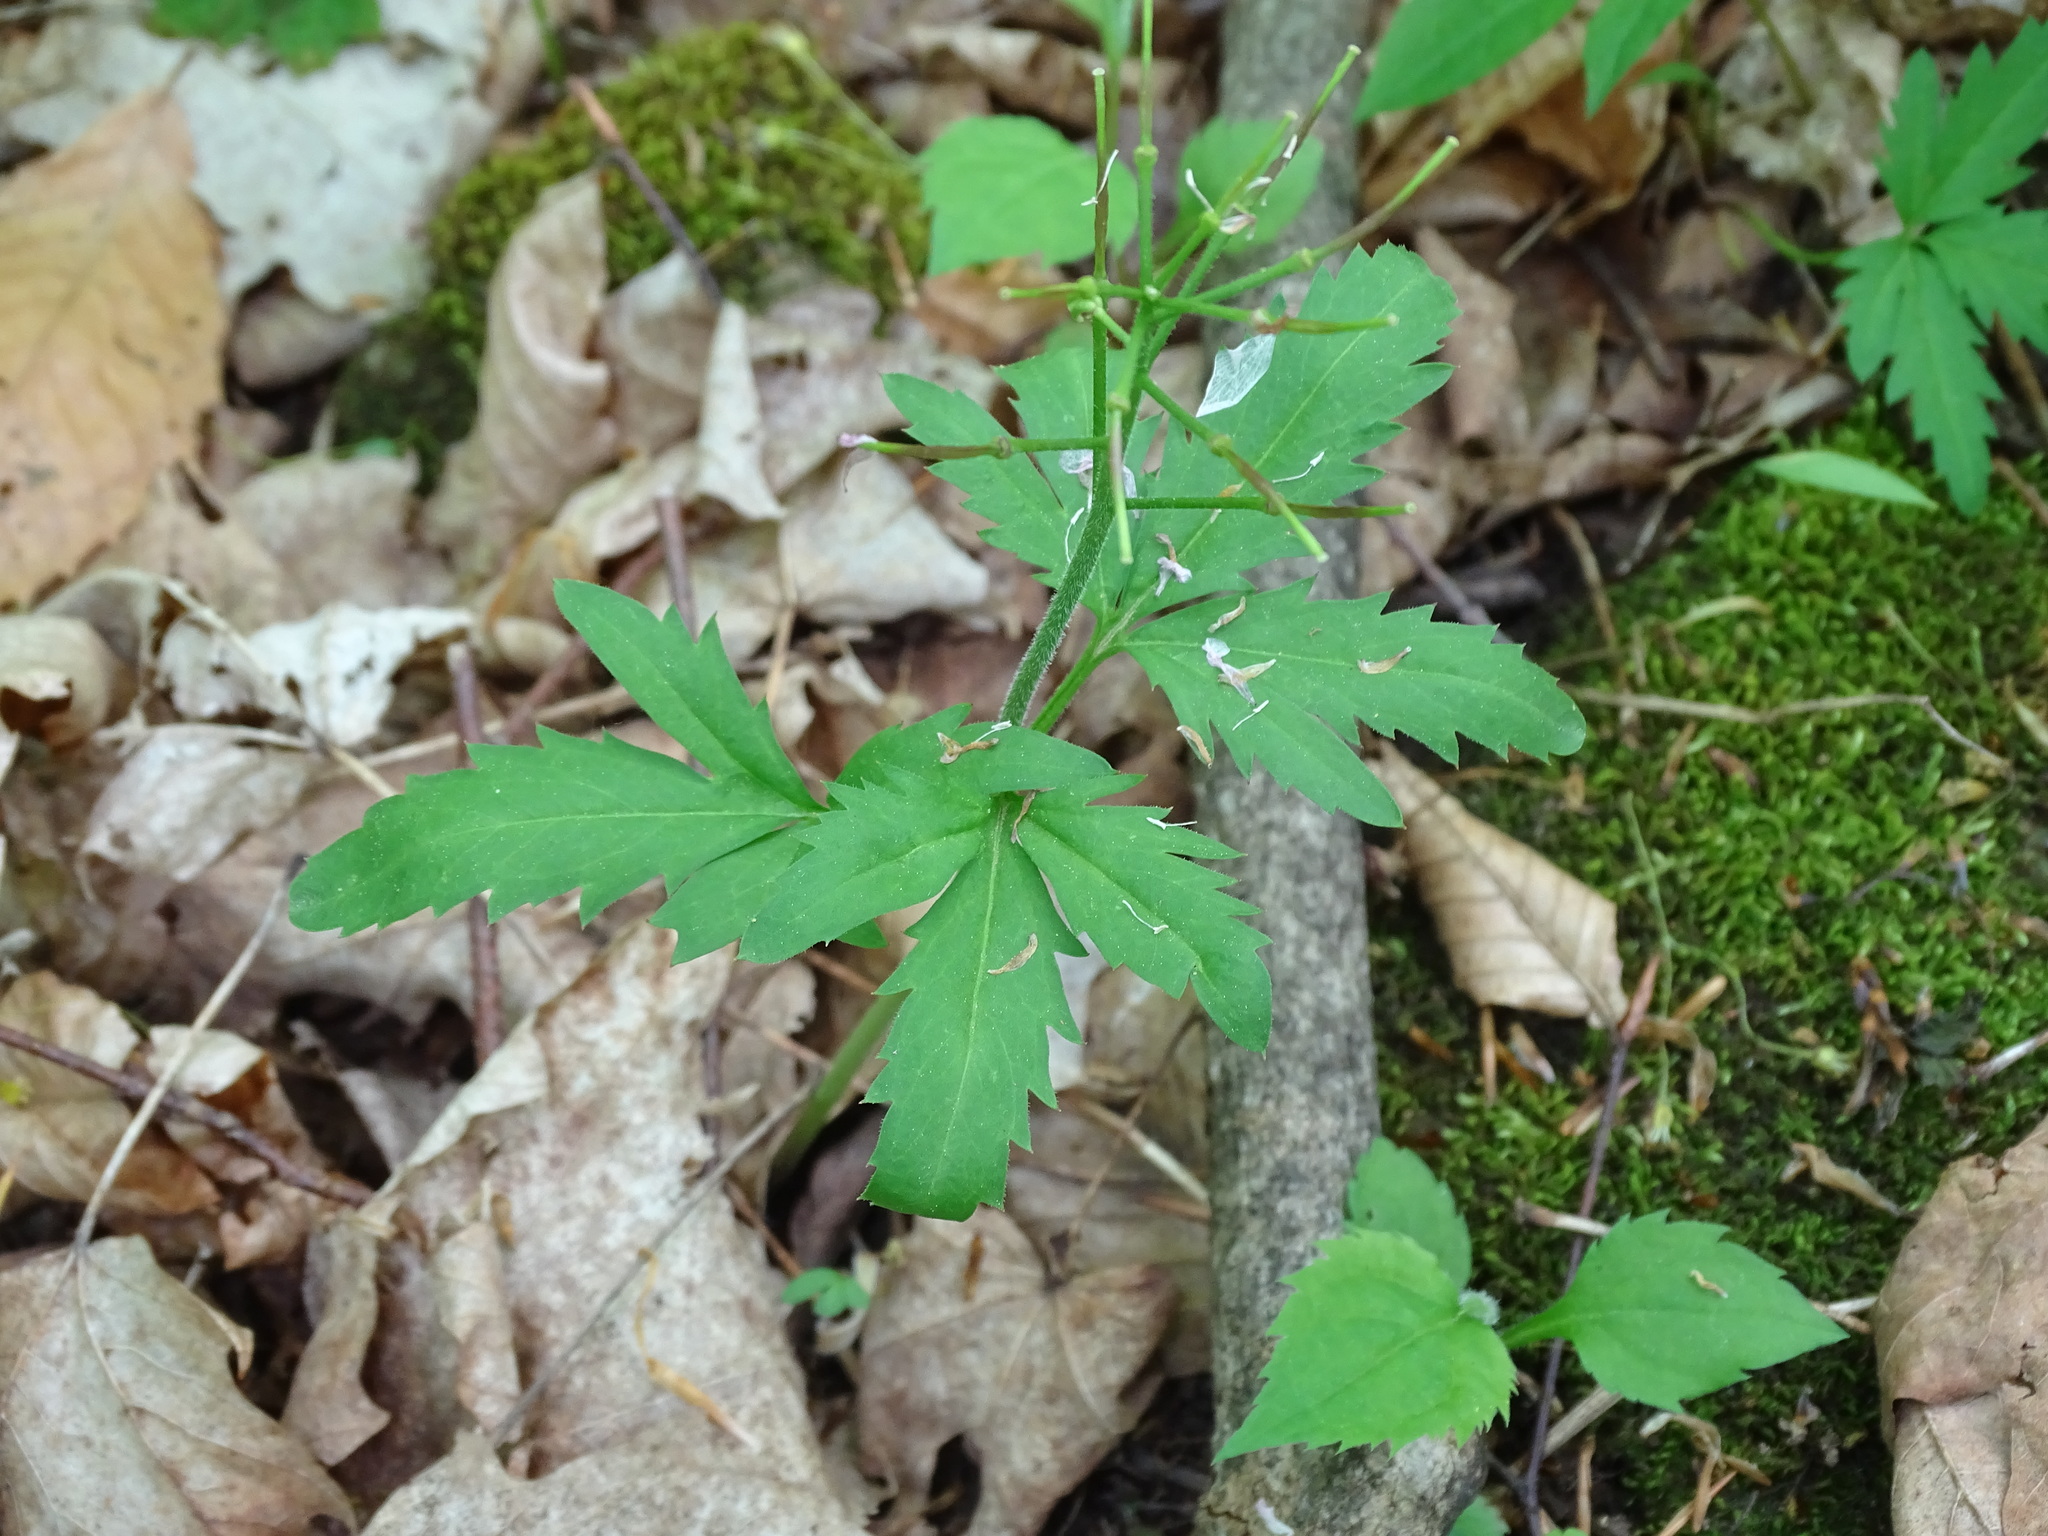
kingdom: Plantae
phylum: Tracheophyta
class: Magnoliopsida
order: Brassicales
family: Brassicaceae
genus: Cardamine
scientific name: Cardamine concatenata
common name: Cut-leaf toothcup
